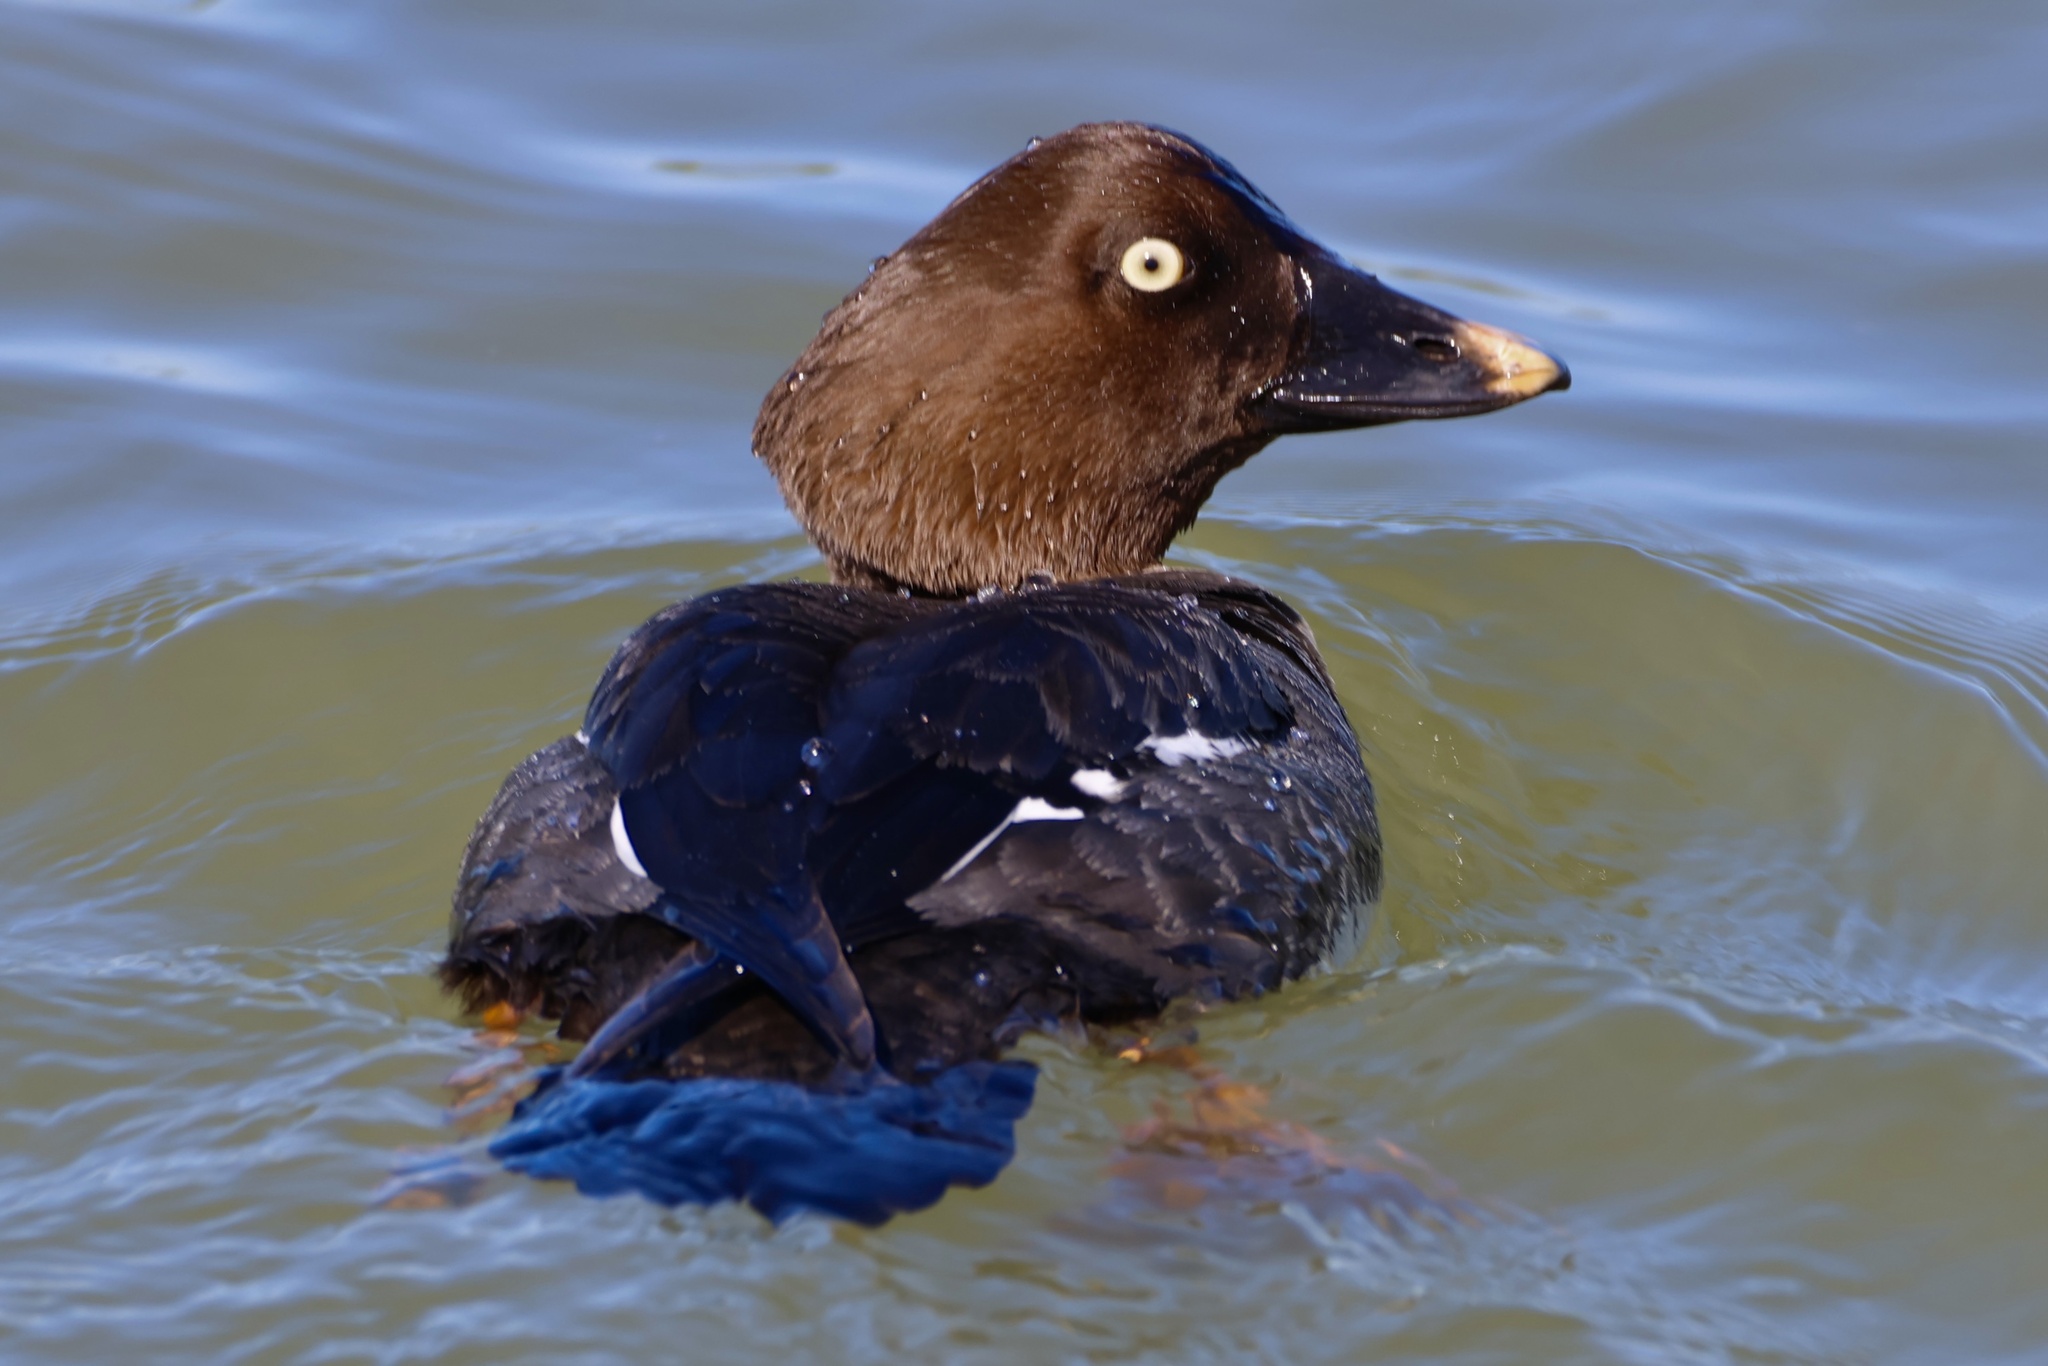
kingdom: Animalia
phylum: Chordata
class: Aves
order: Anseriformes
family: Anatidae
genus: Bucephala
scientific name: Bucephala clangula
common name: Common goldeneye
